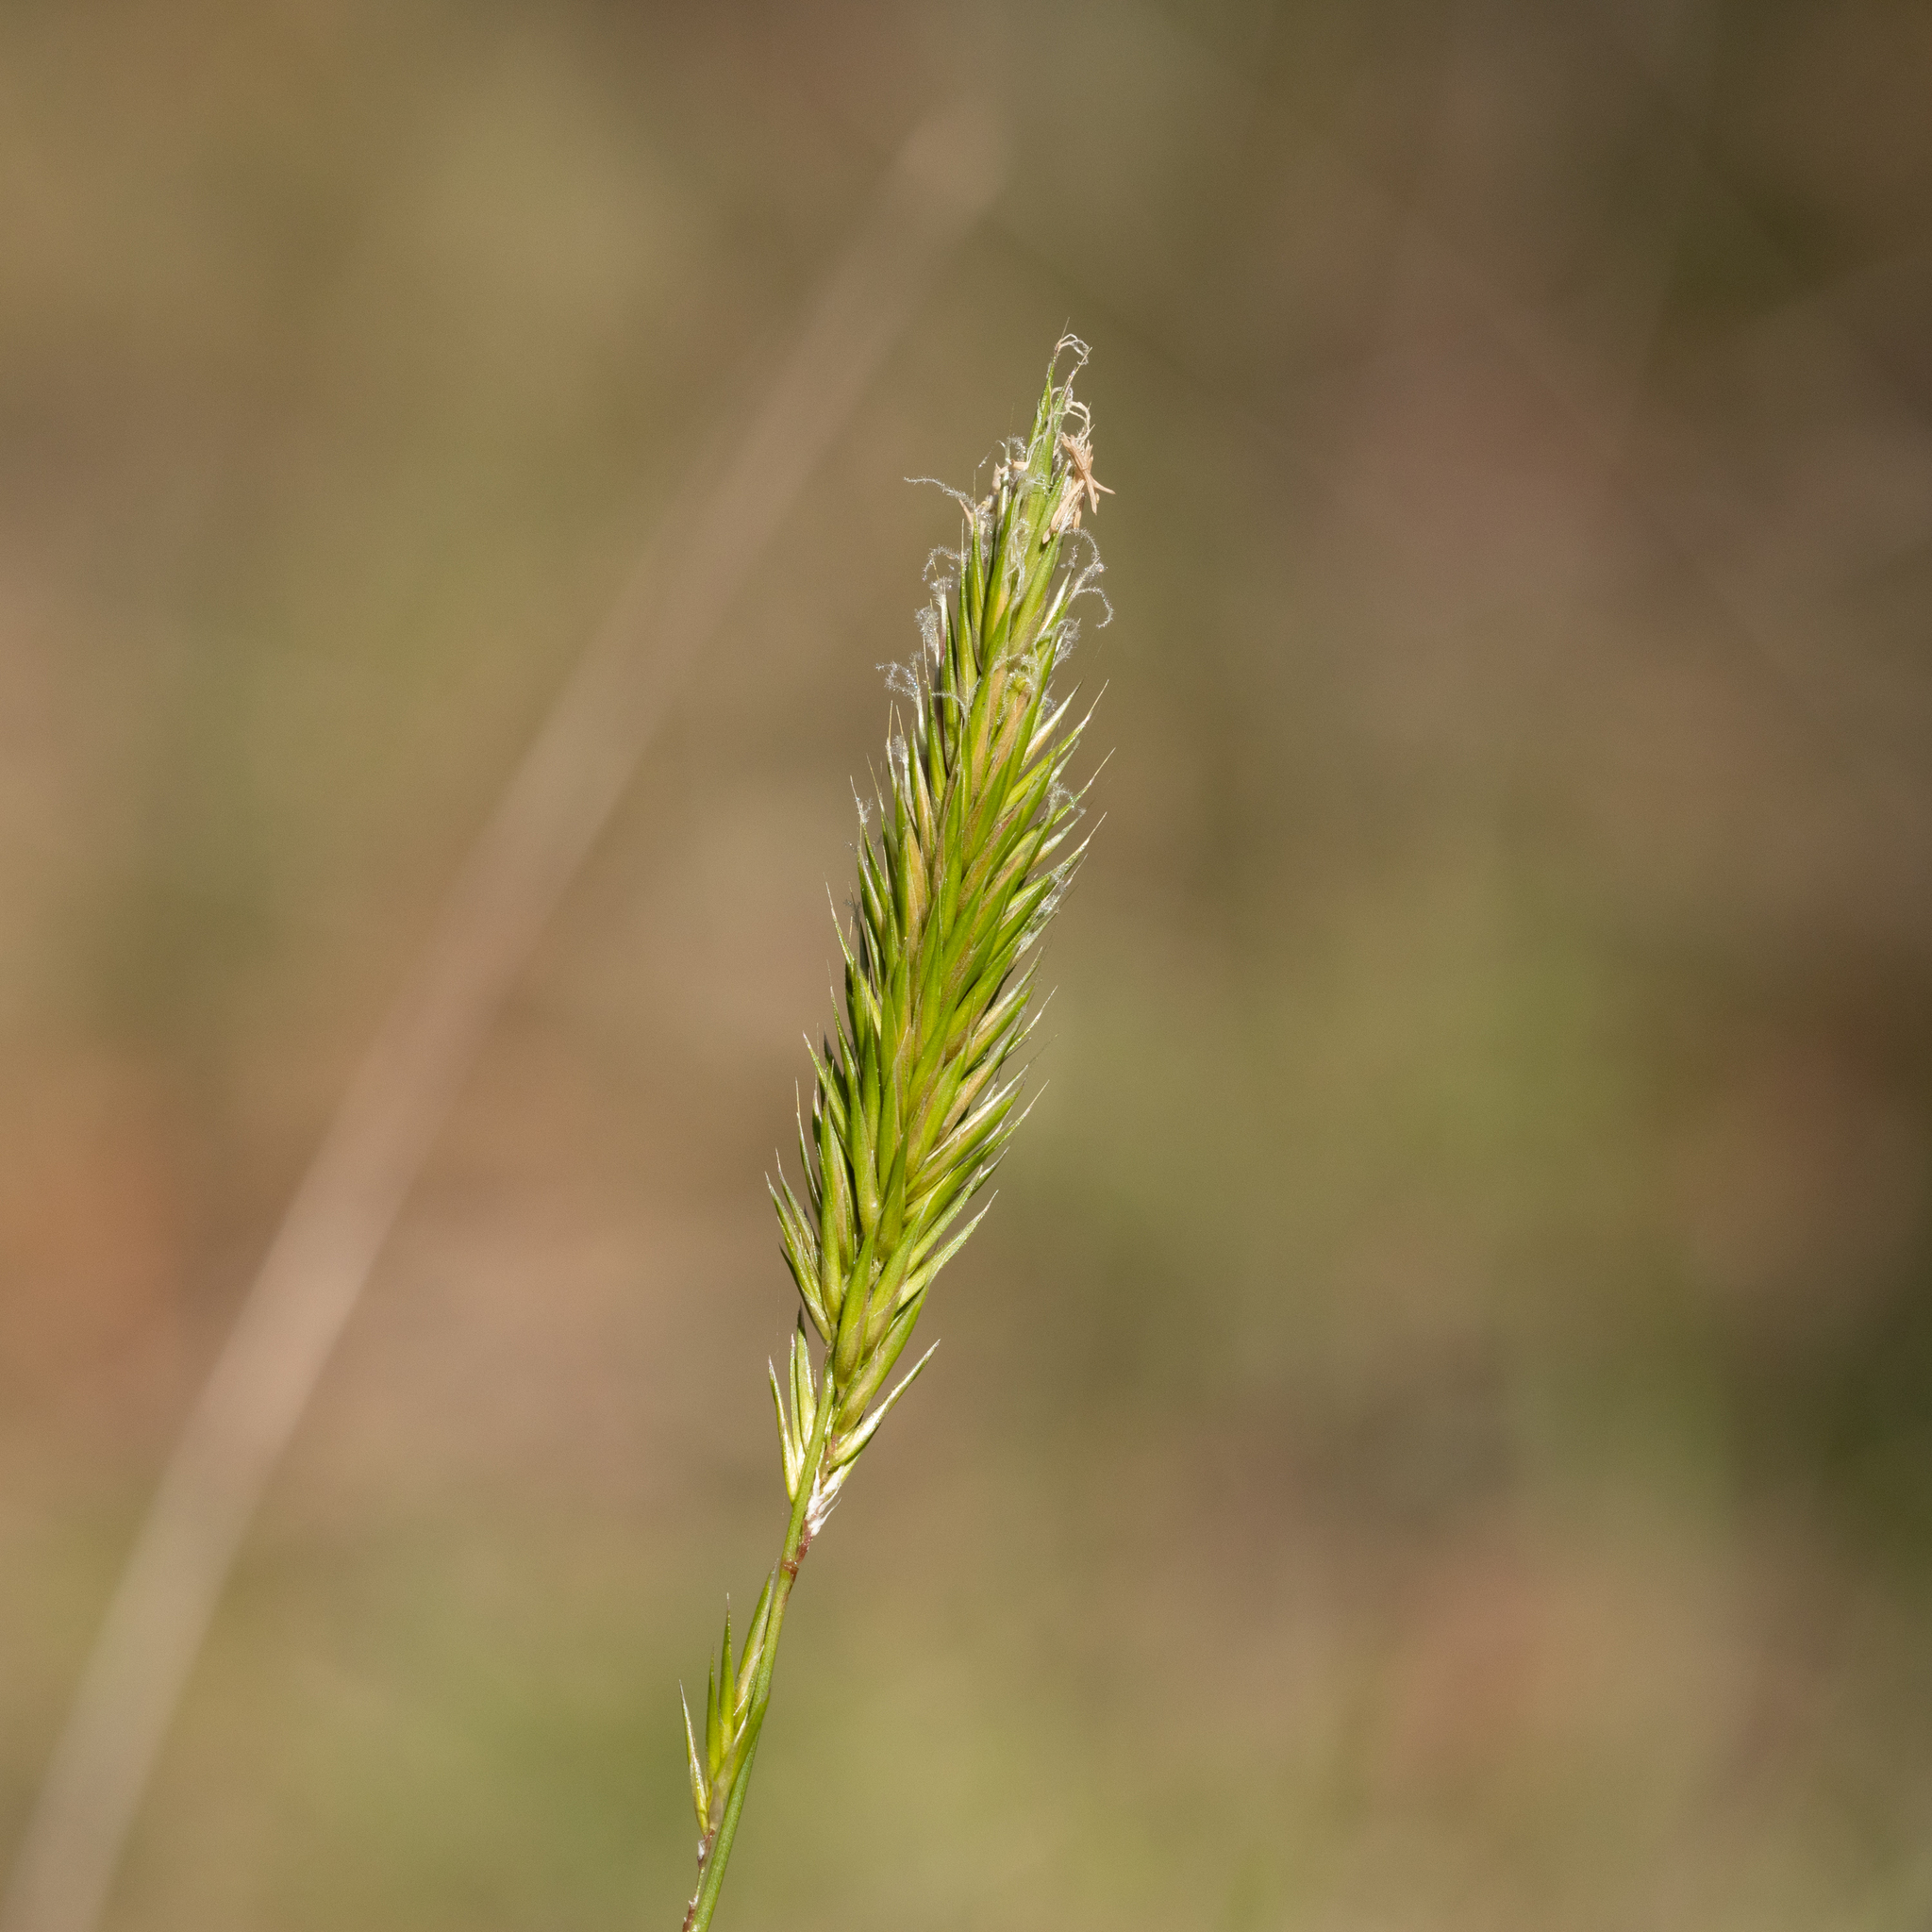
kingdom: Plantae
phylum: Tracheophyta
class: Liliopsida
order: Poales
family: Poaceae
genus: Anthoxanthum
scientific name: Anthoxanthum odoratum
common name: Sweet vernalgrass
